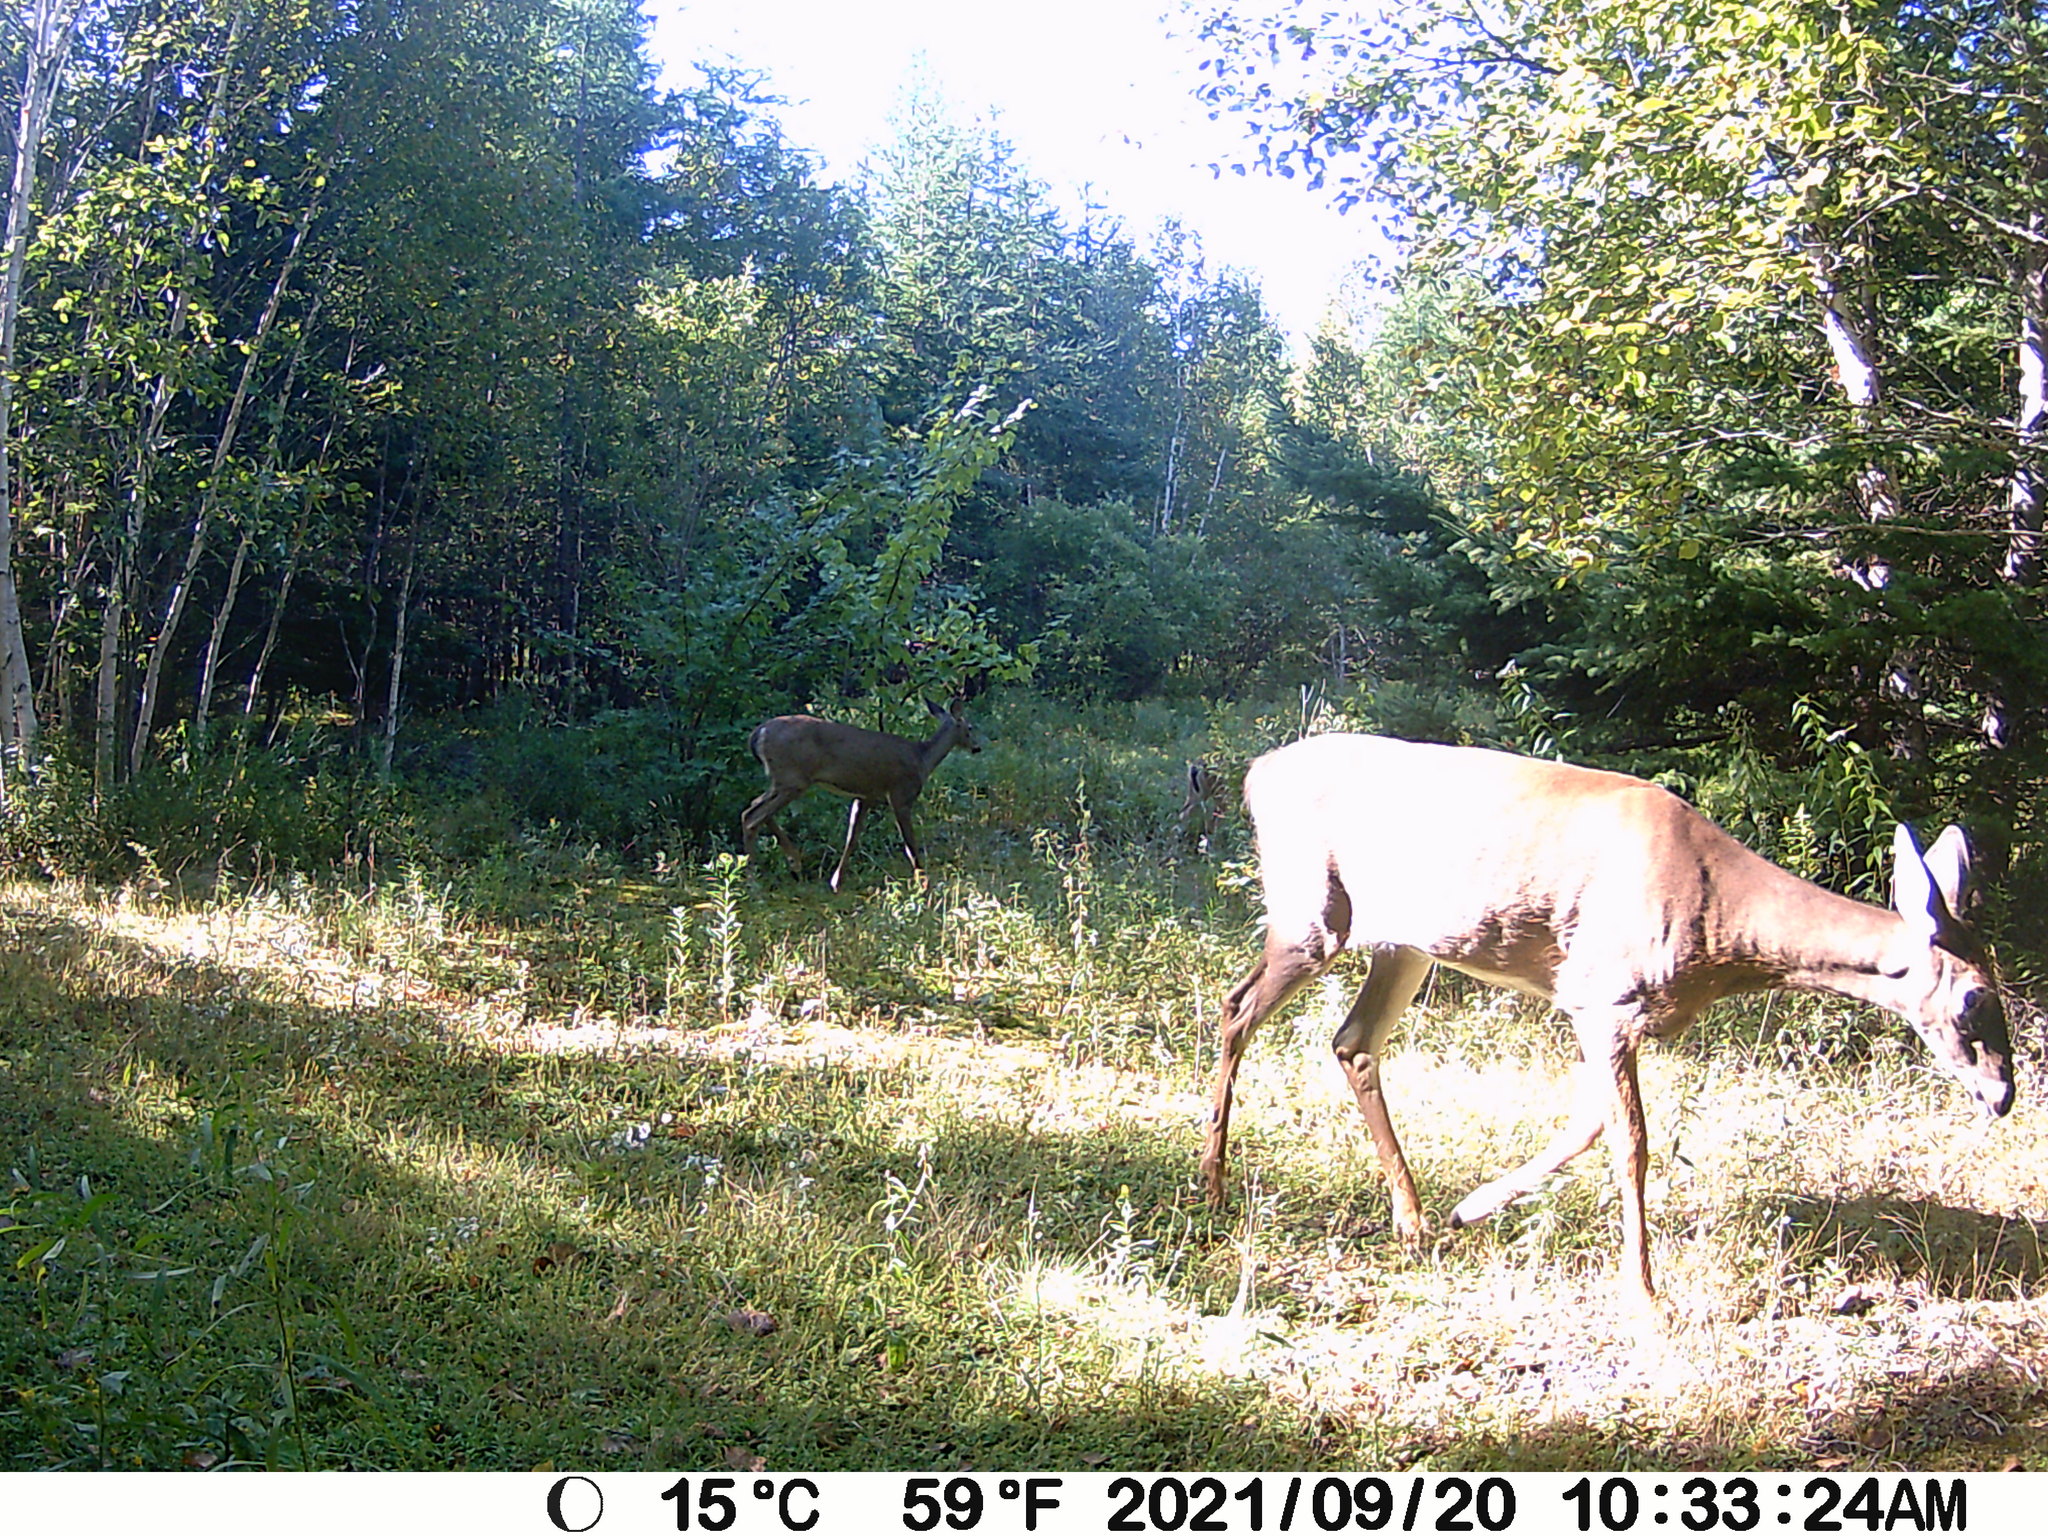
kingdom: Animalia
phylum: Chordata
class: Mammalia
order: Artiodactyla
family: Cervidae
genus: Odocoileus
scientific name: Odocoileus virginianus
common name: White-tailed deer
